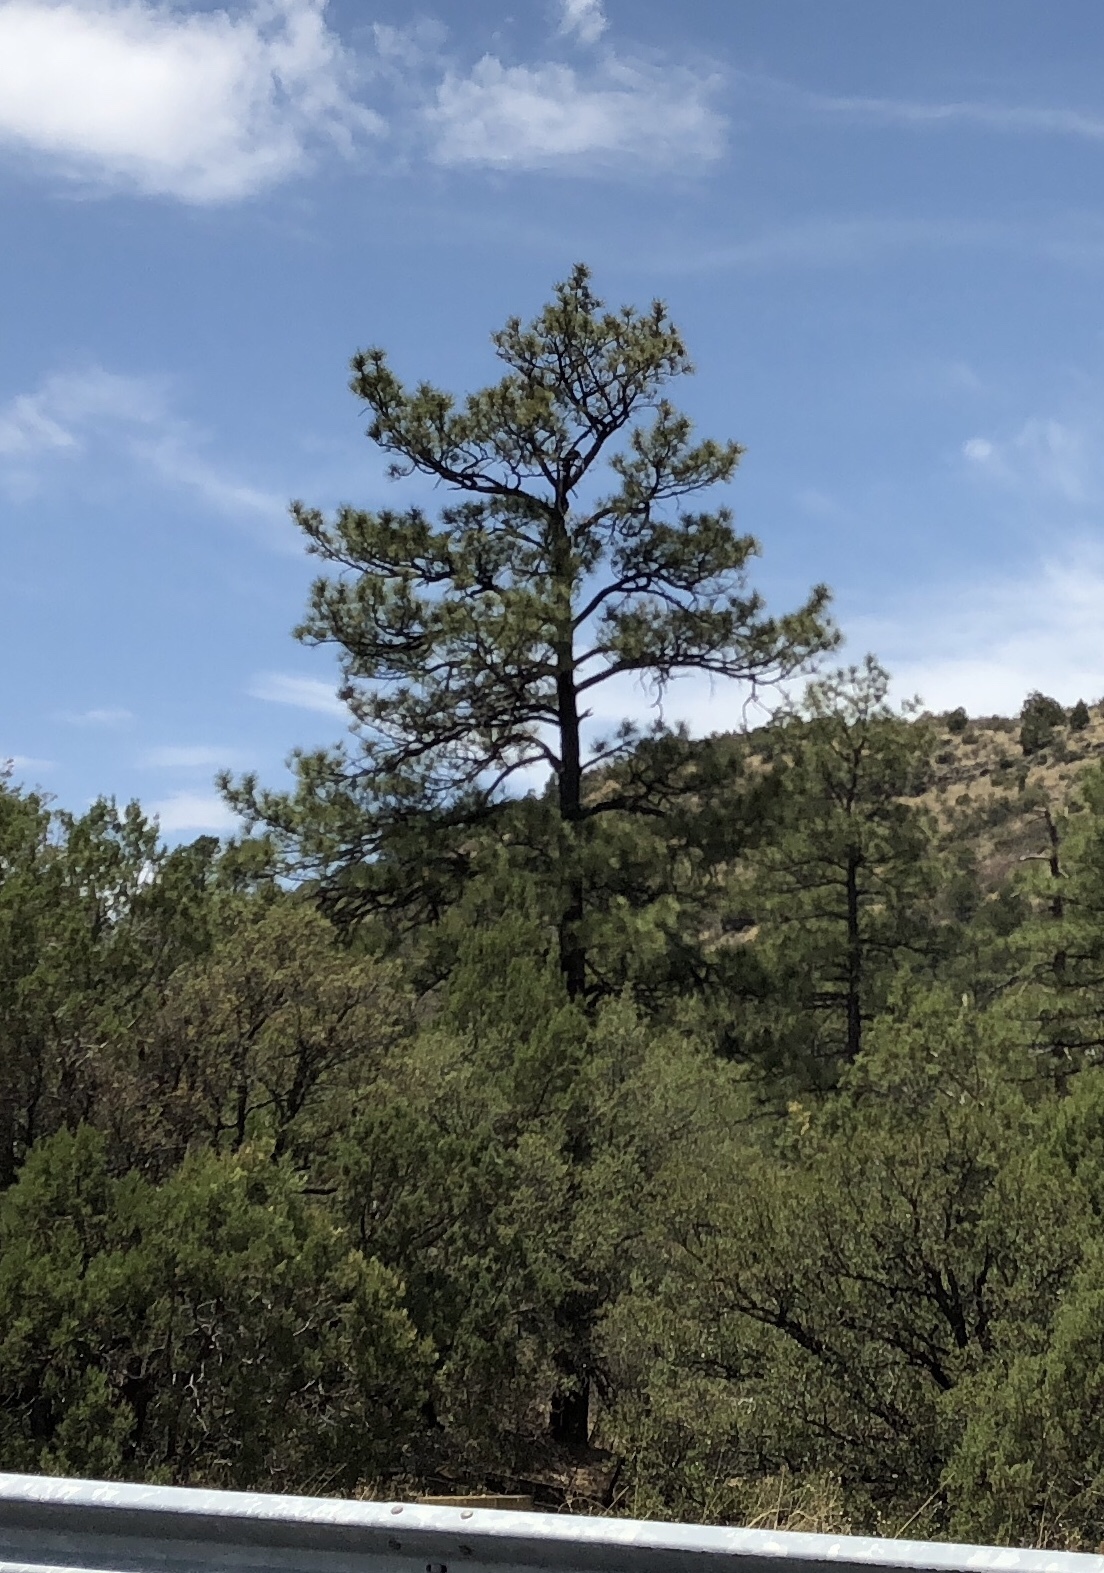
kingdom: Plantae
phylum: Tracheophyta
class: Pinopsida
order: Pinales
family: Pinaceae
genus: Pinus
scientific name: Pinus ponderosa
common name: Western yellow-pine
